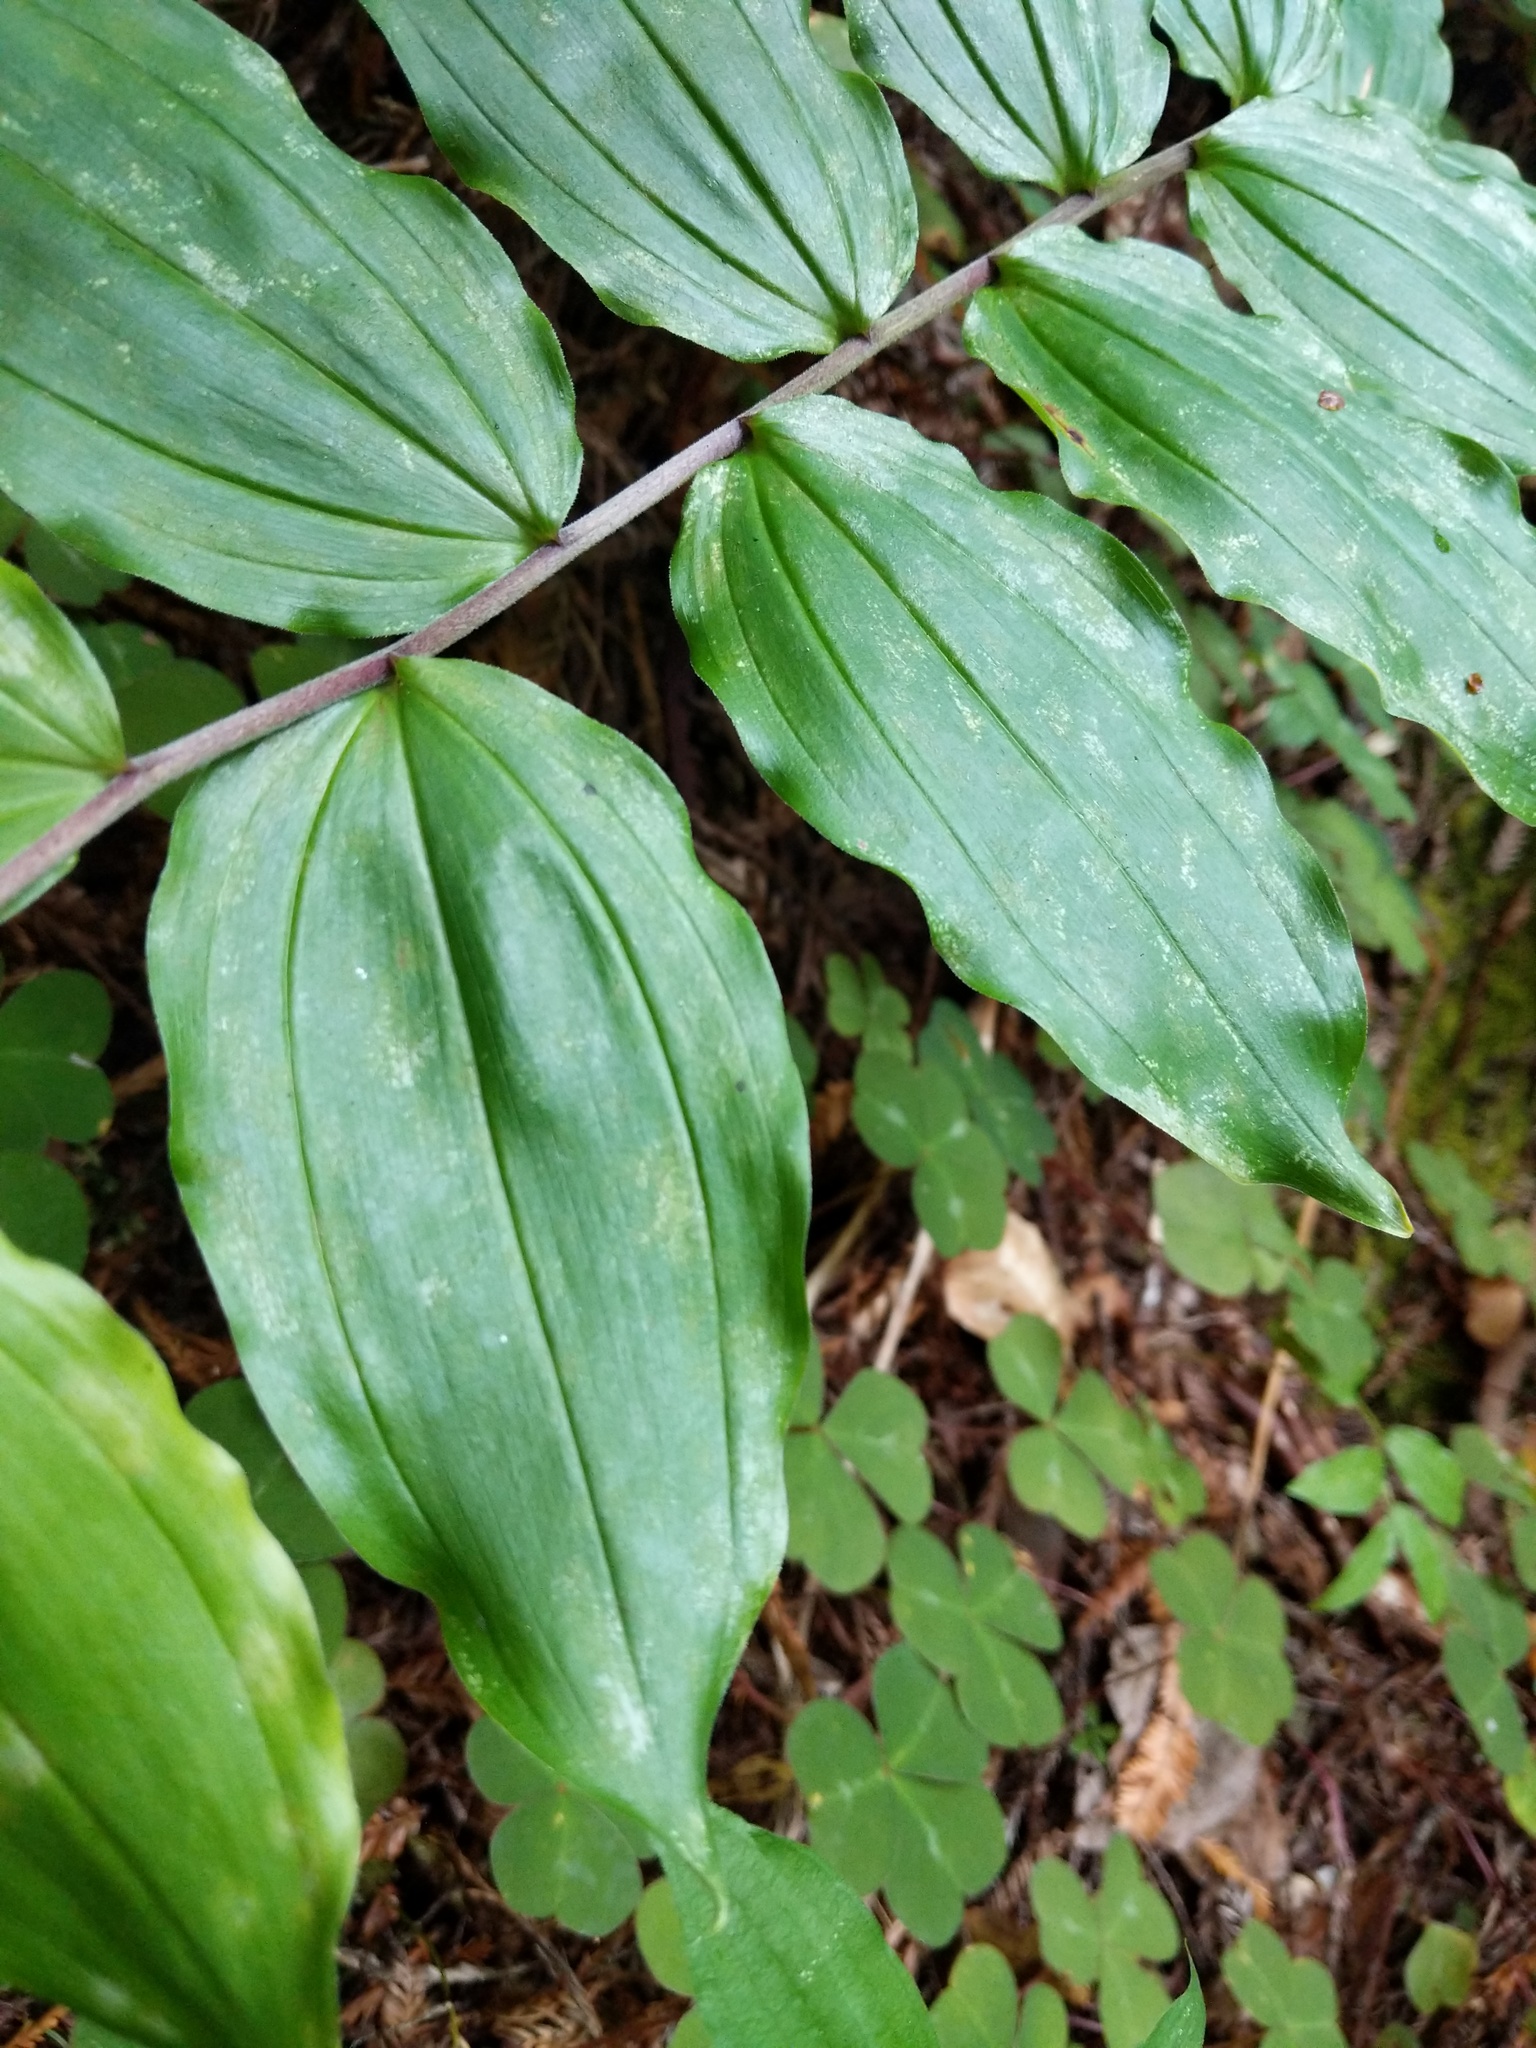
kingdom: Plantae
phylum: Tracheophyta
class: Liliopsida
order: Asparagales
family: Asparagaceae
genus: Maianthemum
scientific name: Maianthemum racemosum
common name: False spikenard
